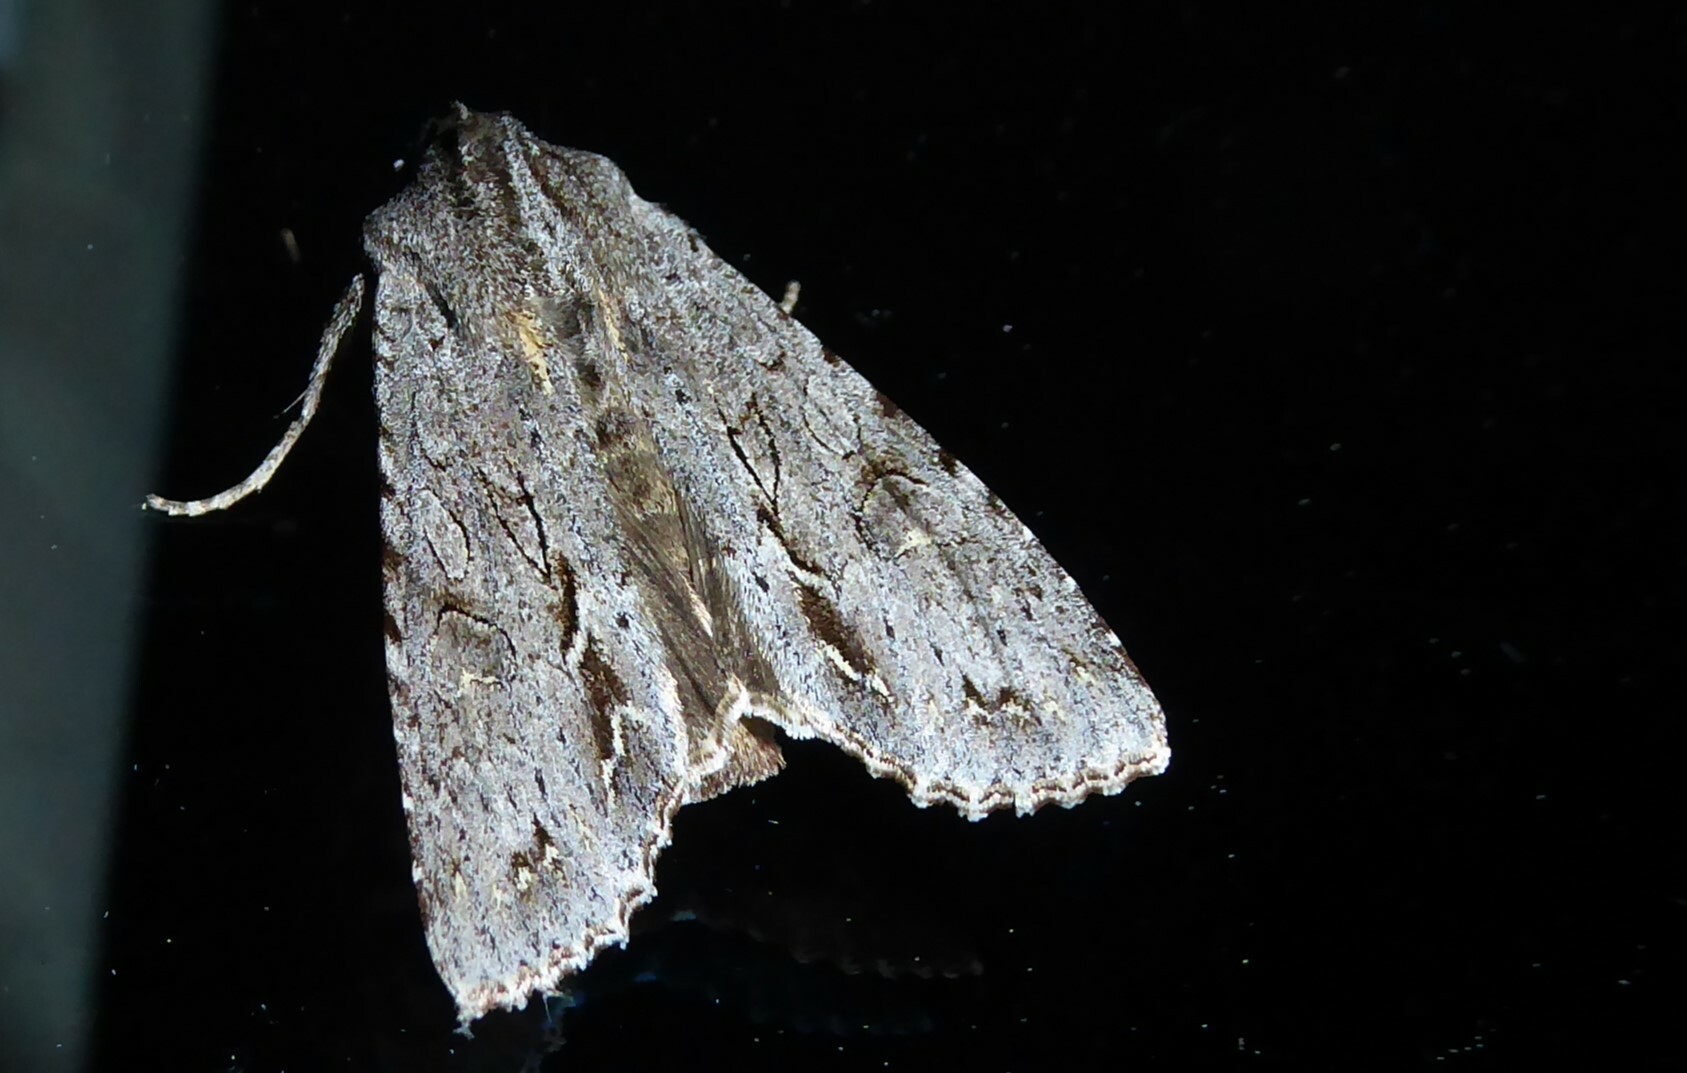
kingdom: Animalia
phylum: Arthropoda
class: Insecta
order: Lepidoptera
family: Noctuidae
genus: Ichneutica
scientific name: Ichneutica
